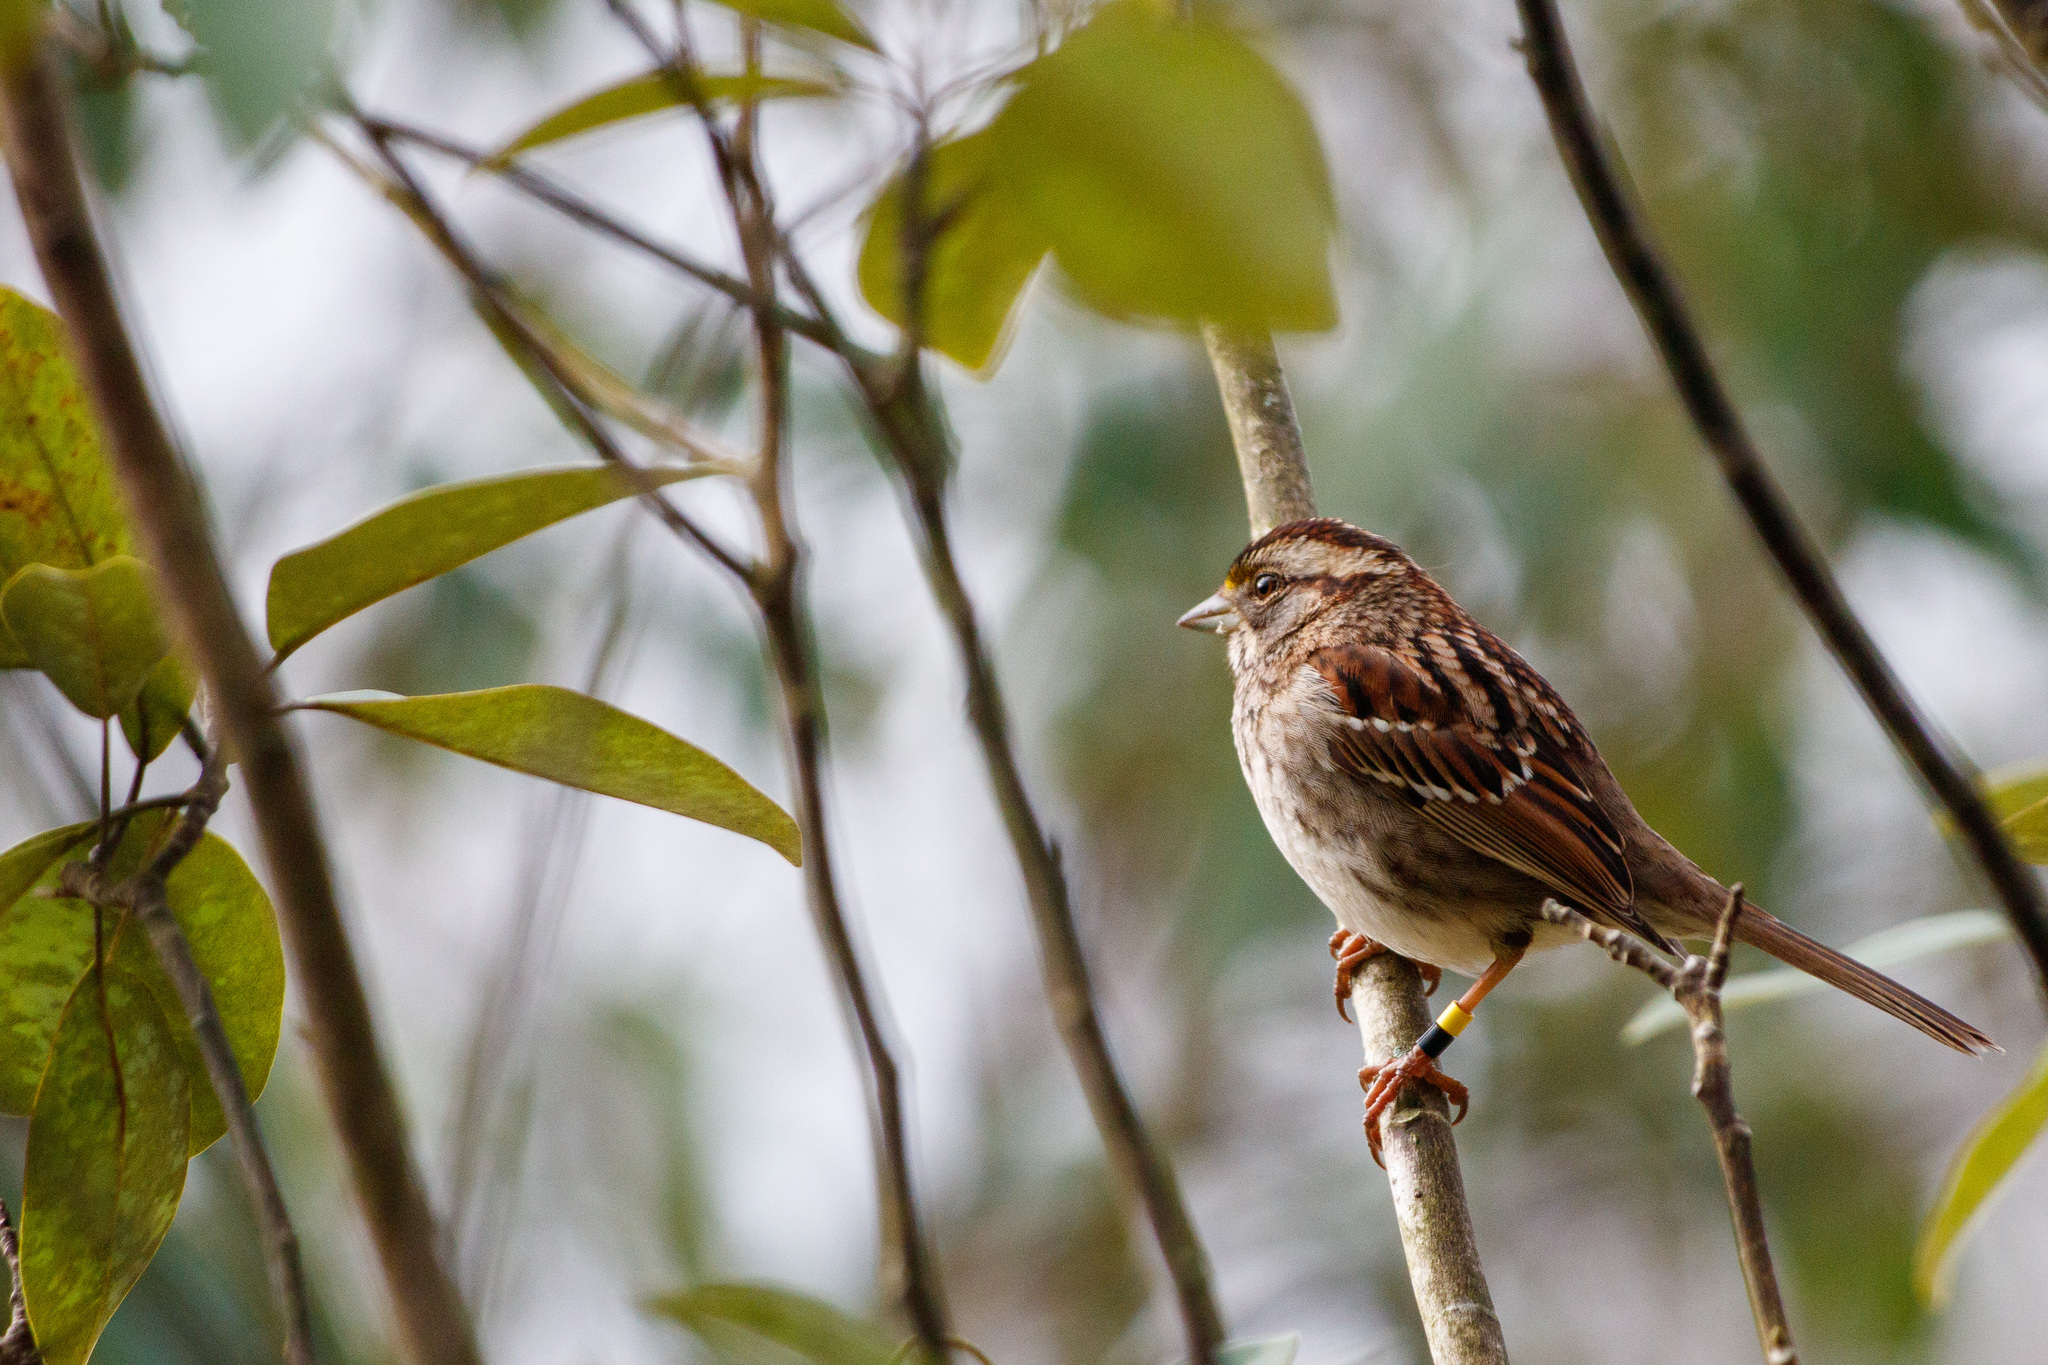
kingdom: Animalia
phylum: Chordata
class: Aves
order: Passeriformes
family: Passerellidae
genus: Zonotrichia
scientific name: Zonotrichia albicollis
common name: White-throated sparrow
